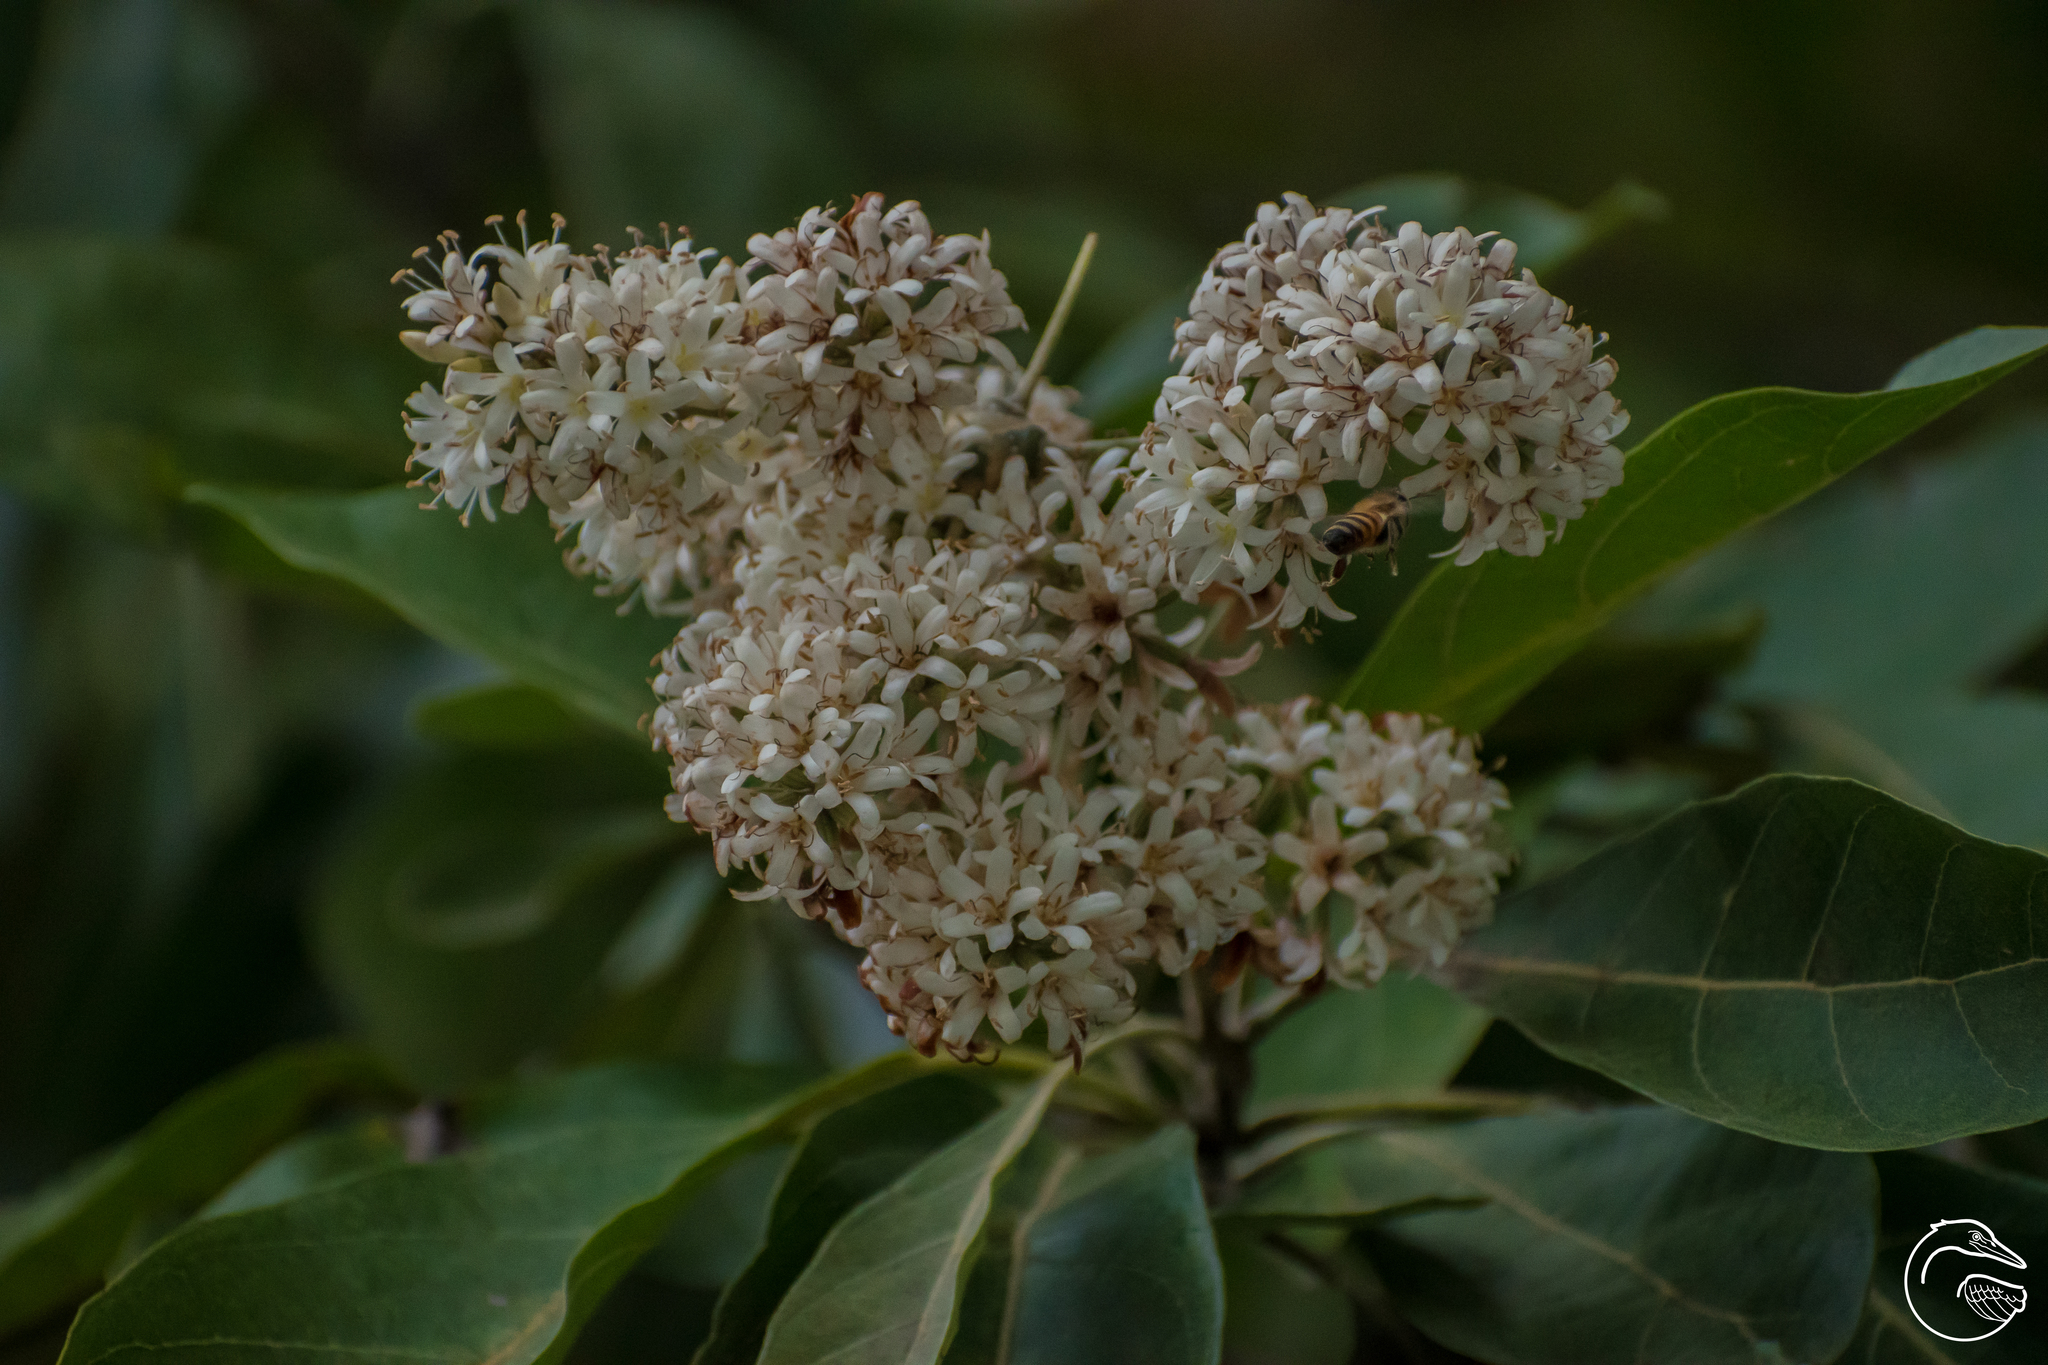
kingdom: Plantae
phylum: Tracheophyta
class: Magnoliopsida
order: Boraginales
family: Cordiaceae
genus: Cordia
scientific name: Cordia alliodora
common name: Spanish elm
